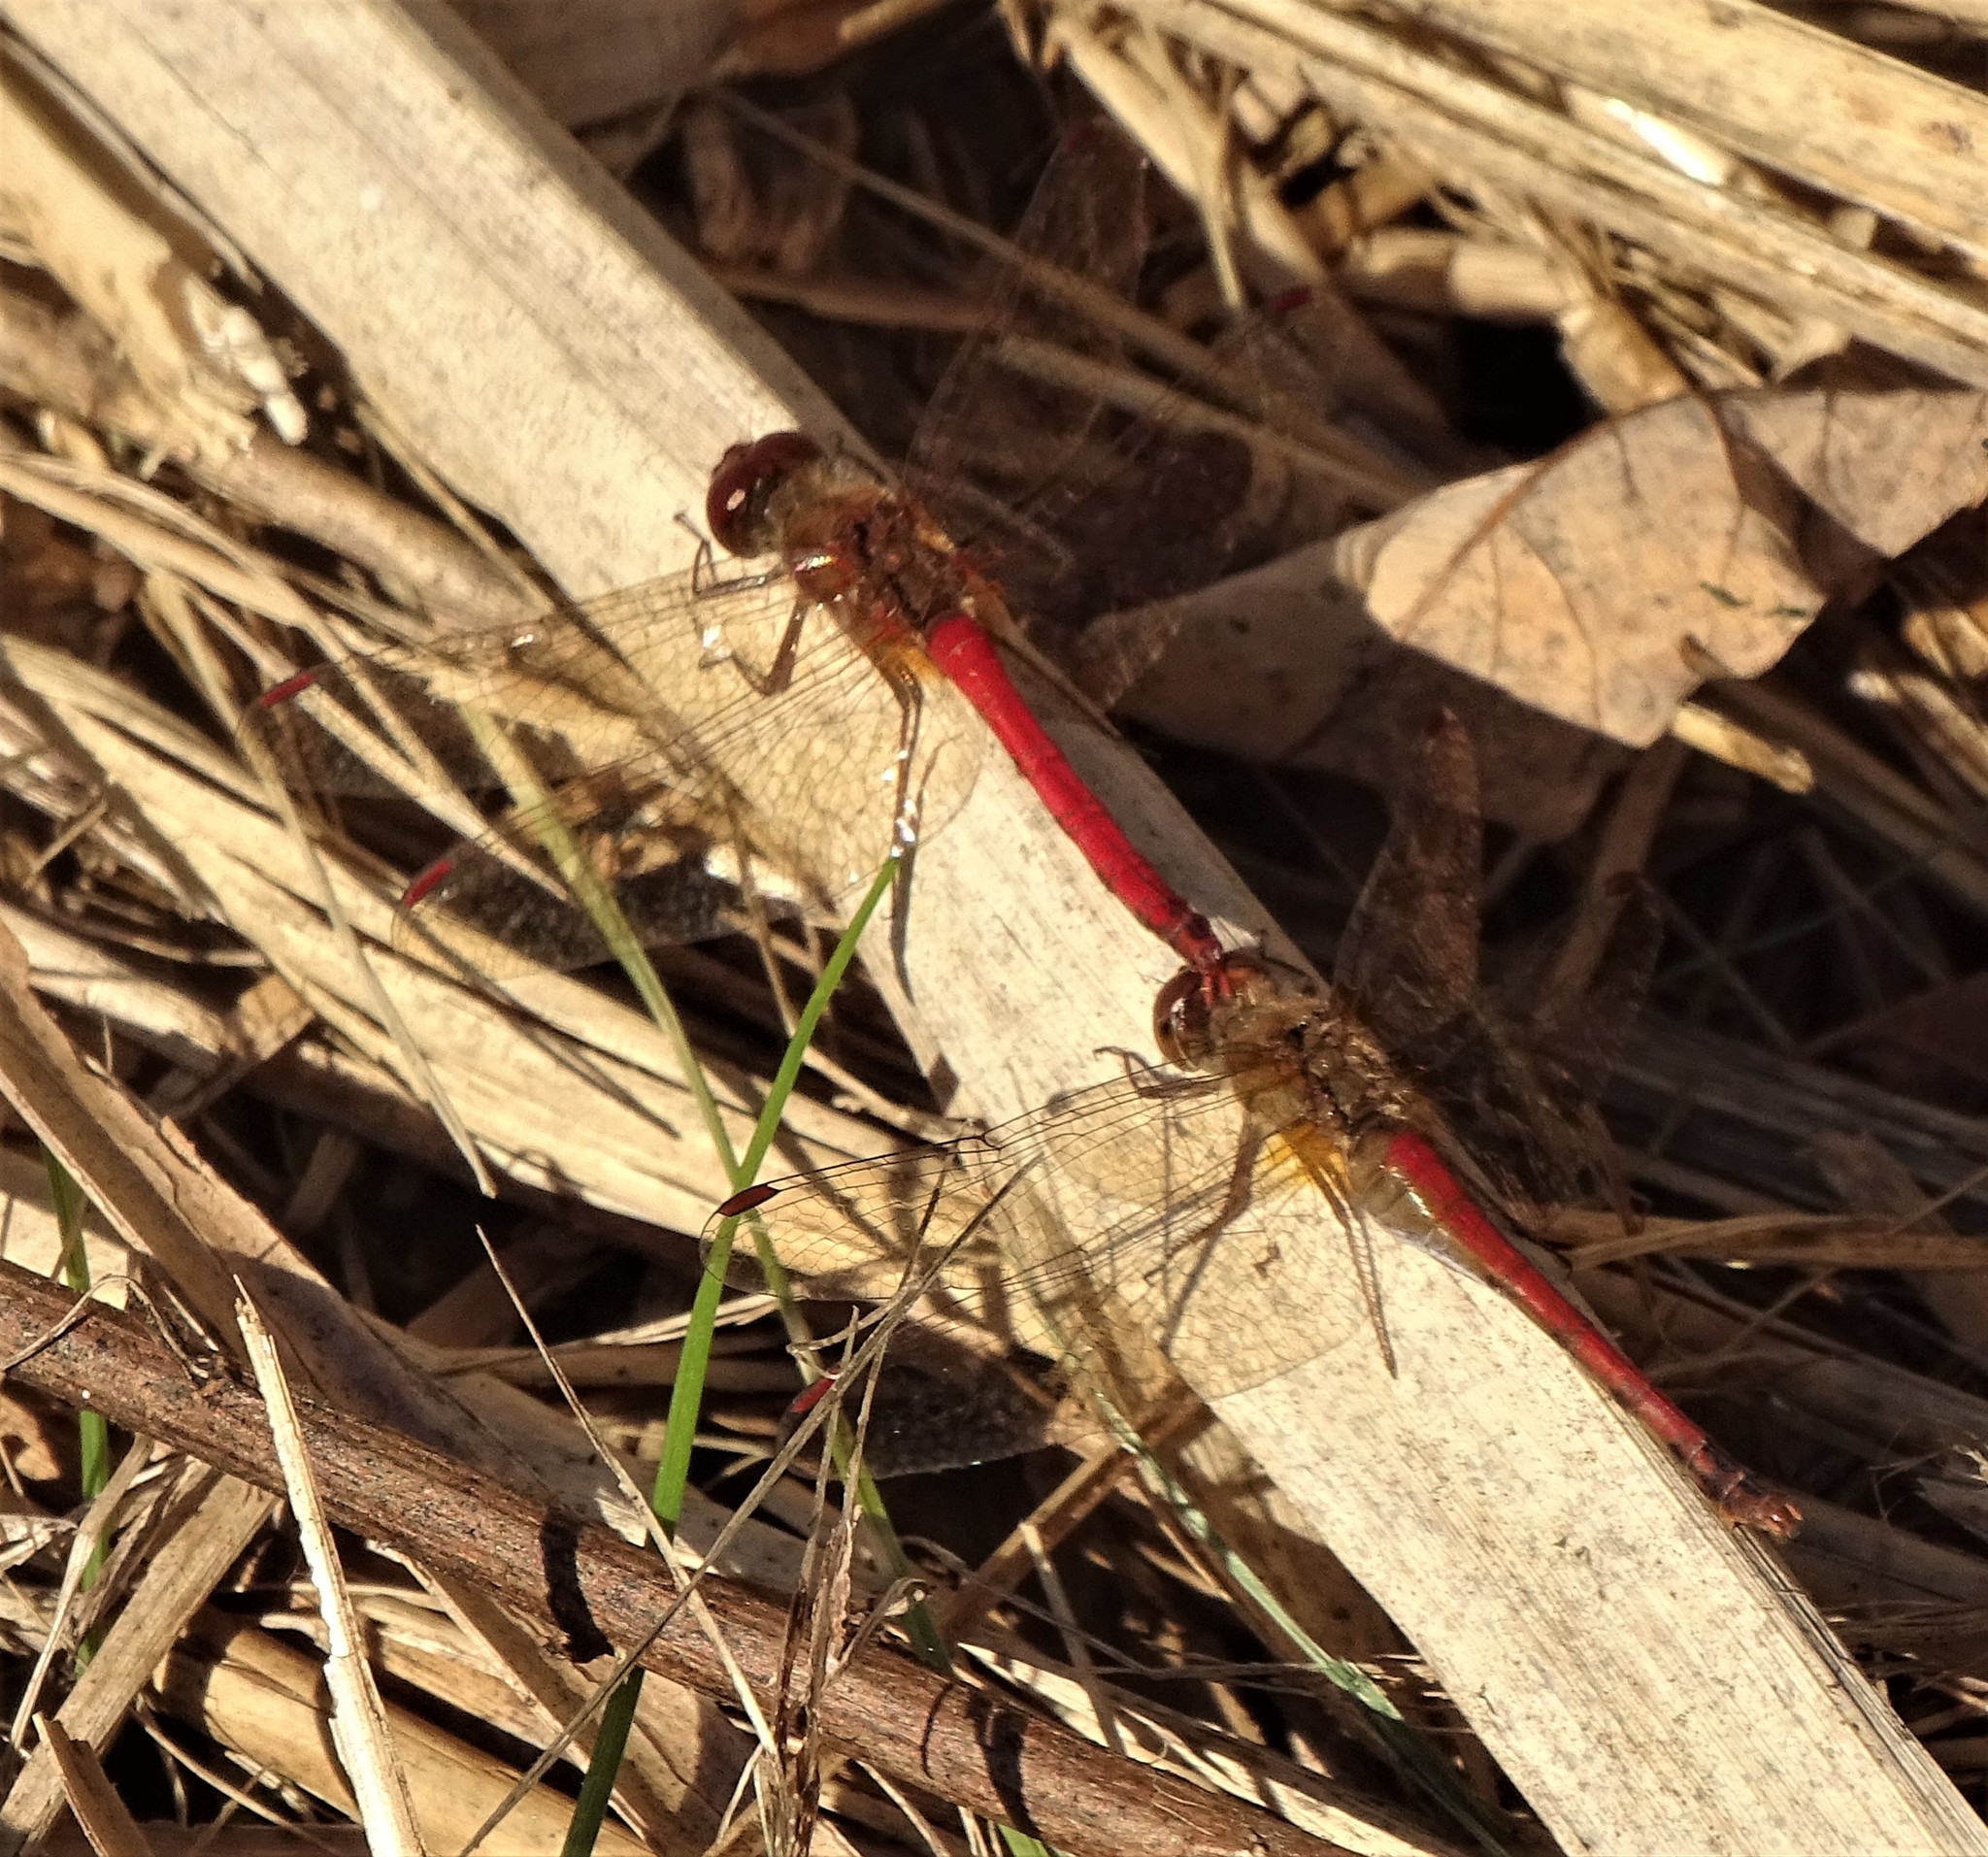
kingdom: Animalia
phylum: Arthropoda
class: Insecta
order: Odonata
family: Libellulidae
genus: Sympetrum
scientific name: Sympetrum vicinum
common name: Autumn meadowhawk
